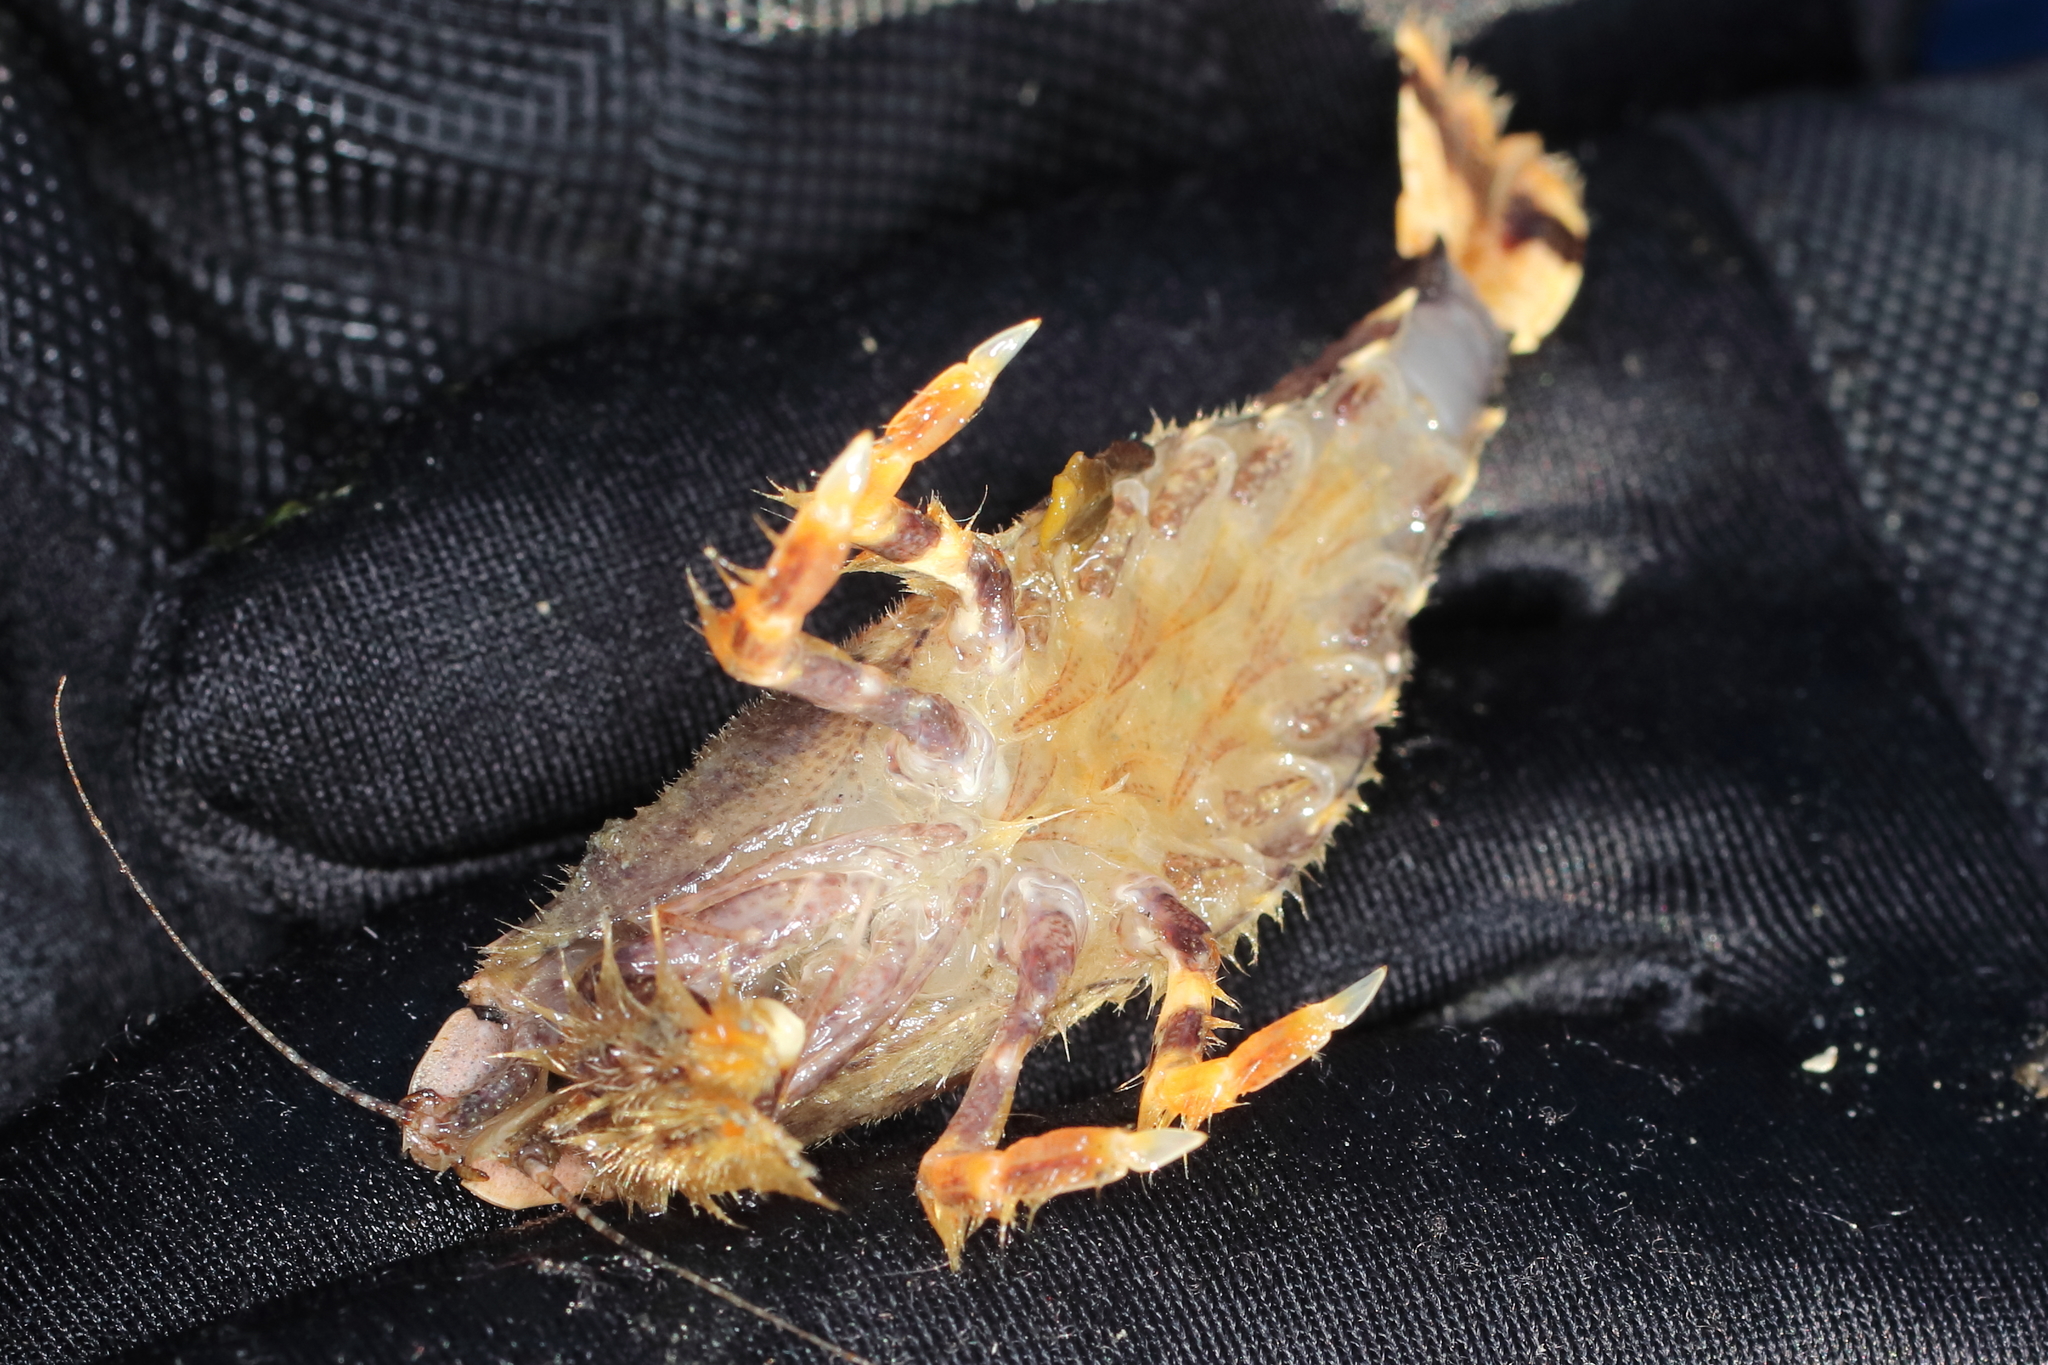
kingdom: Animalia
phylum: Arthropoda
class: Malacostraca
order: Decapoda
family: Crangonidae
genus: Argis
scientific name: Argis crassa
